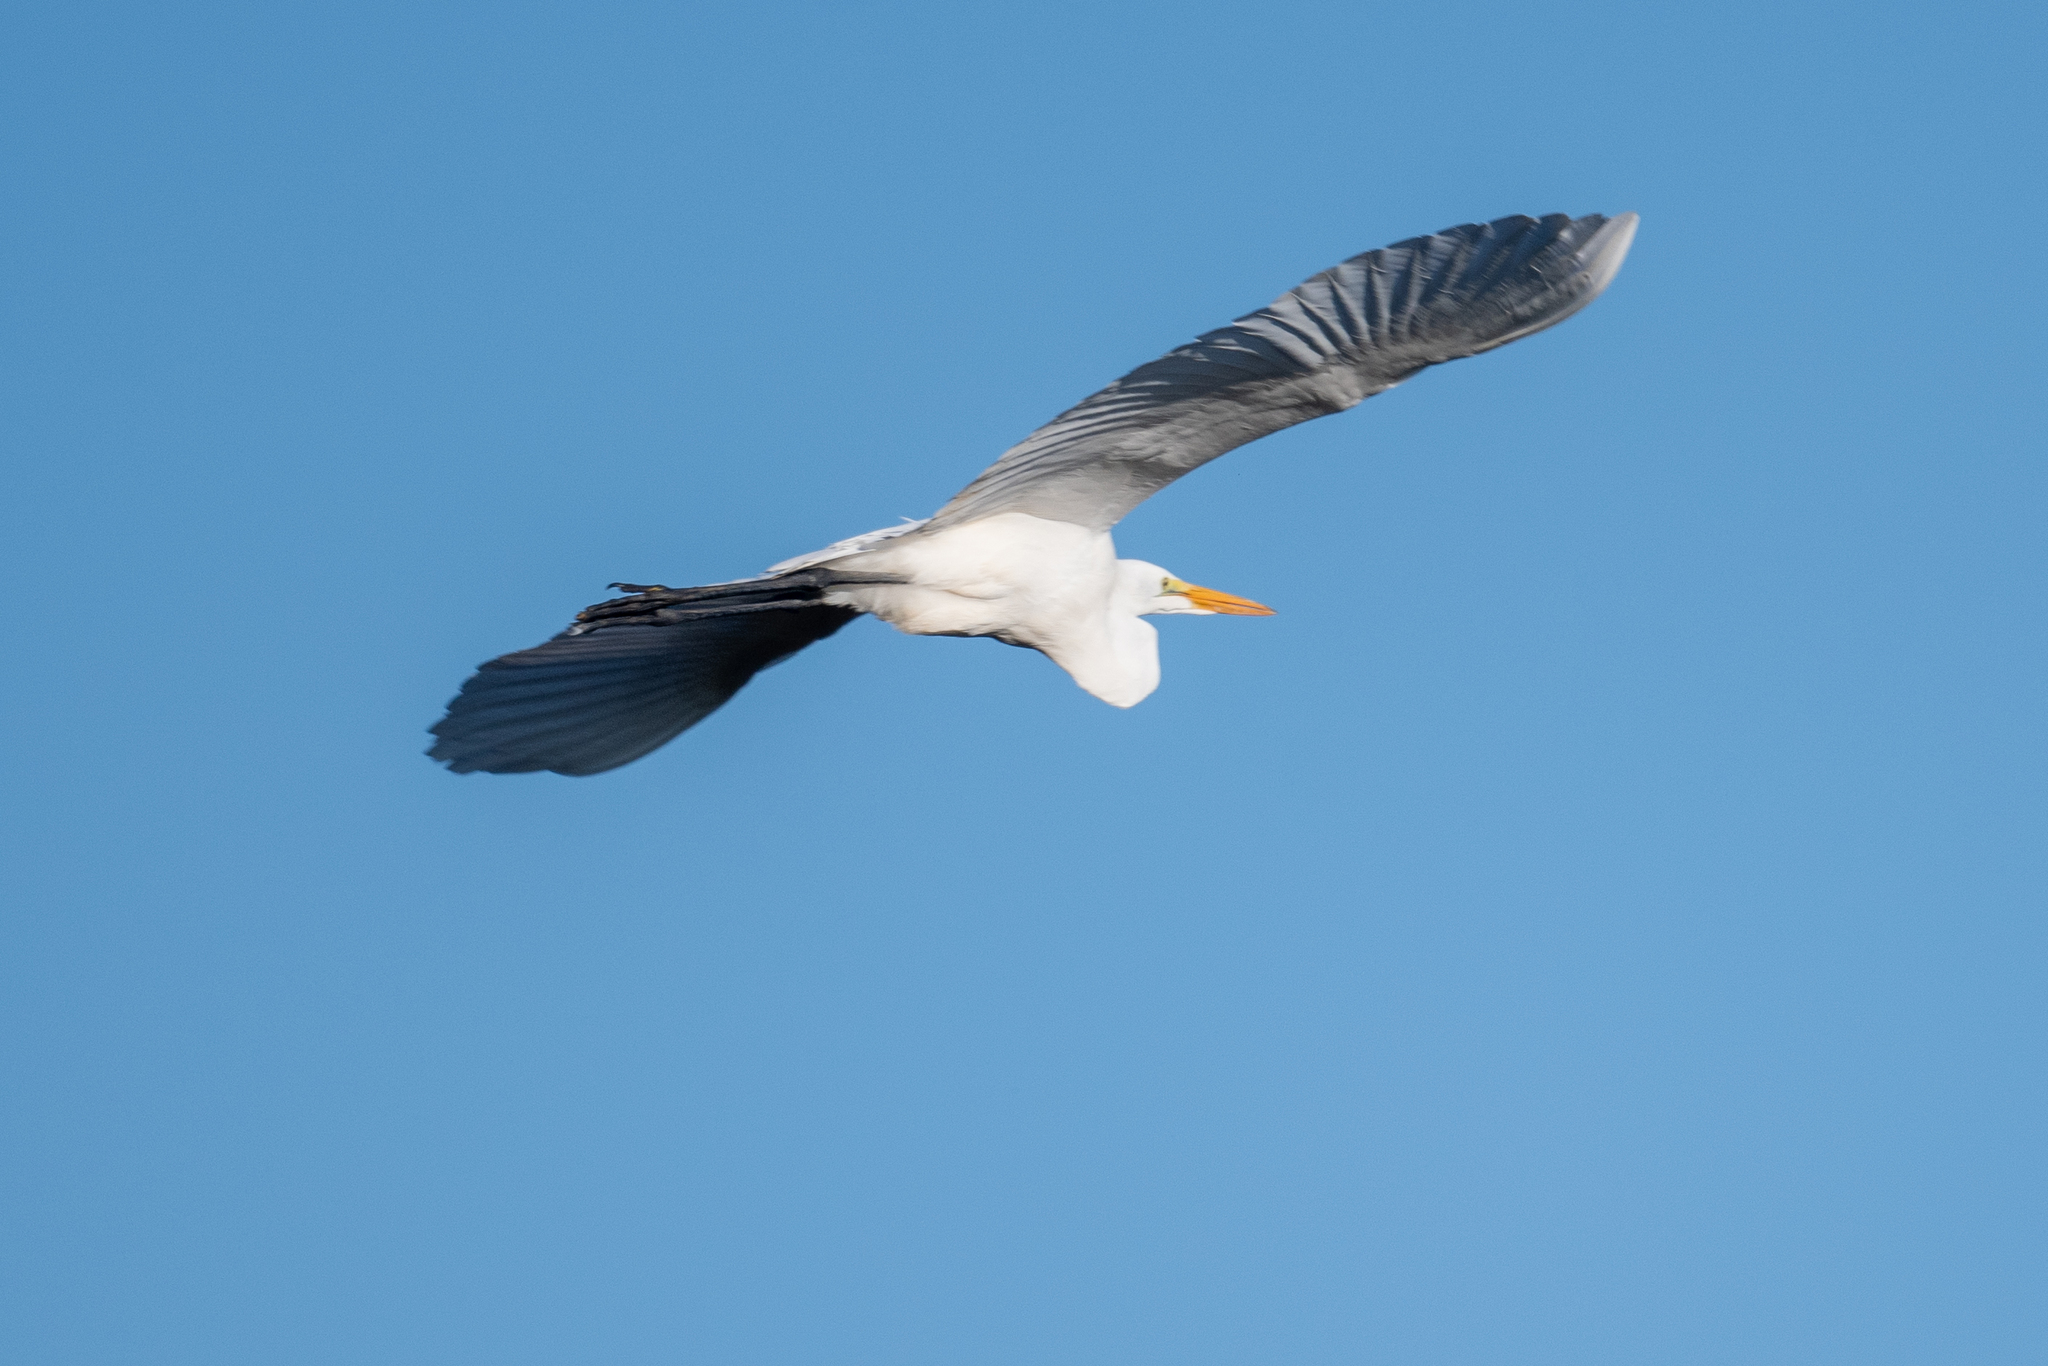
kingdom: Animalia
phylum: Chordata
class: Aves
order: Pelecaniformes
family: Ardeidae
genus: Ardea
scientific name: Ardea alba
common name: Great egret
